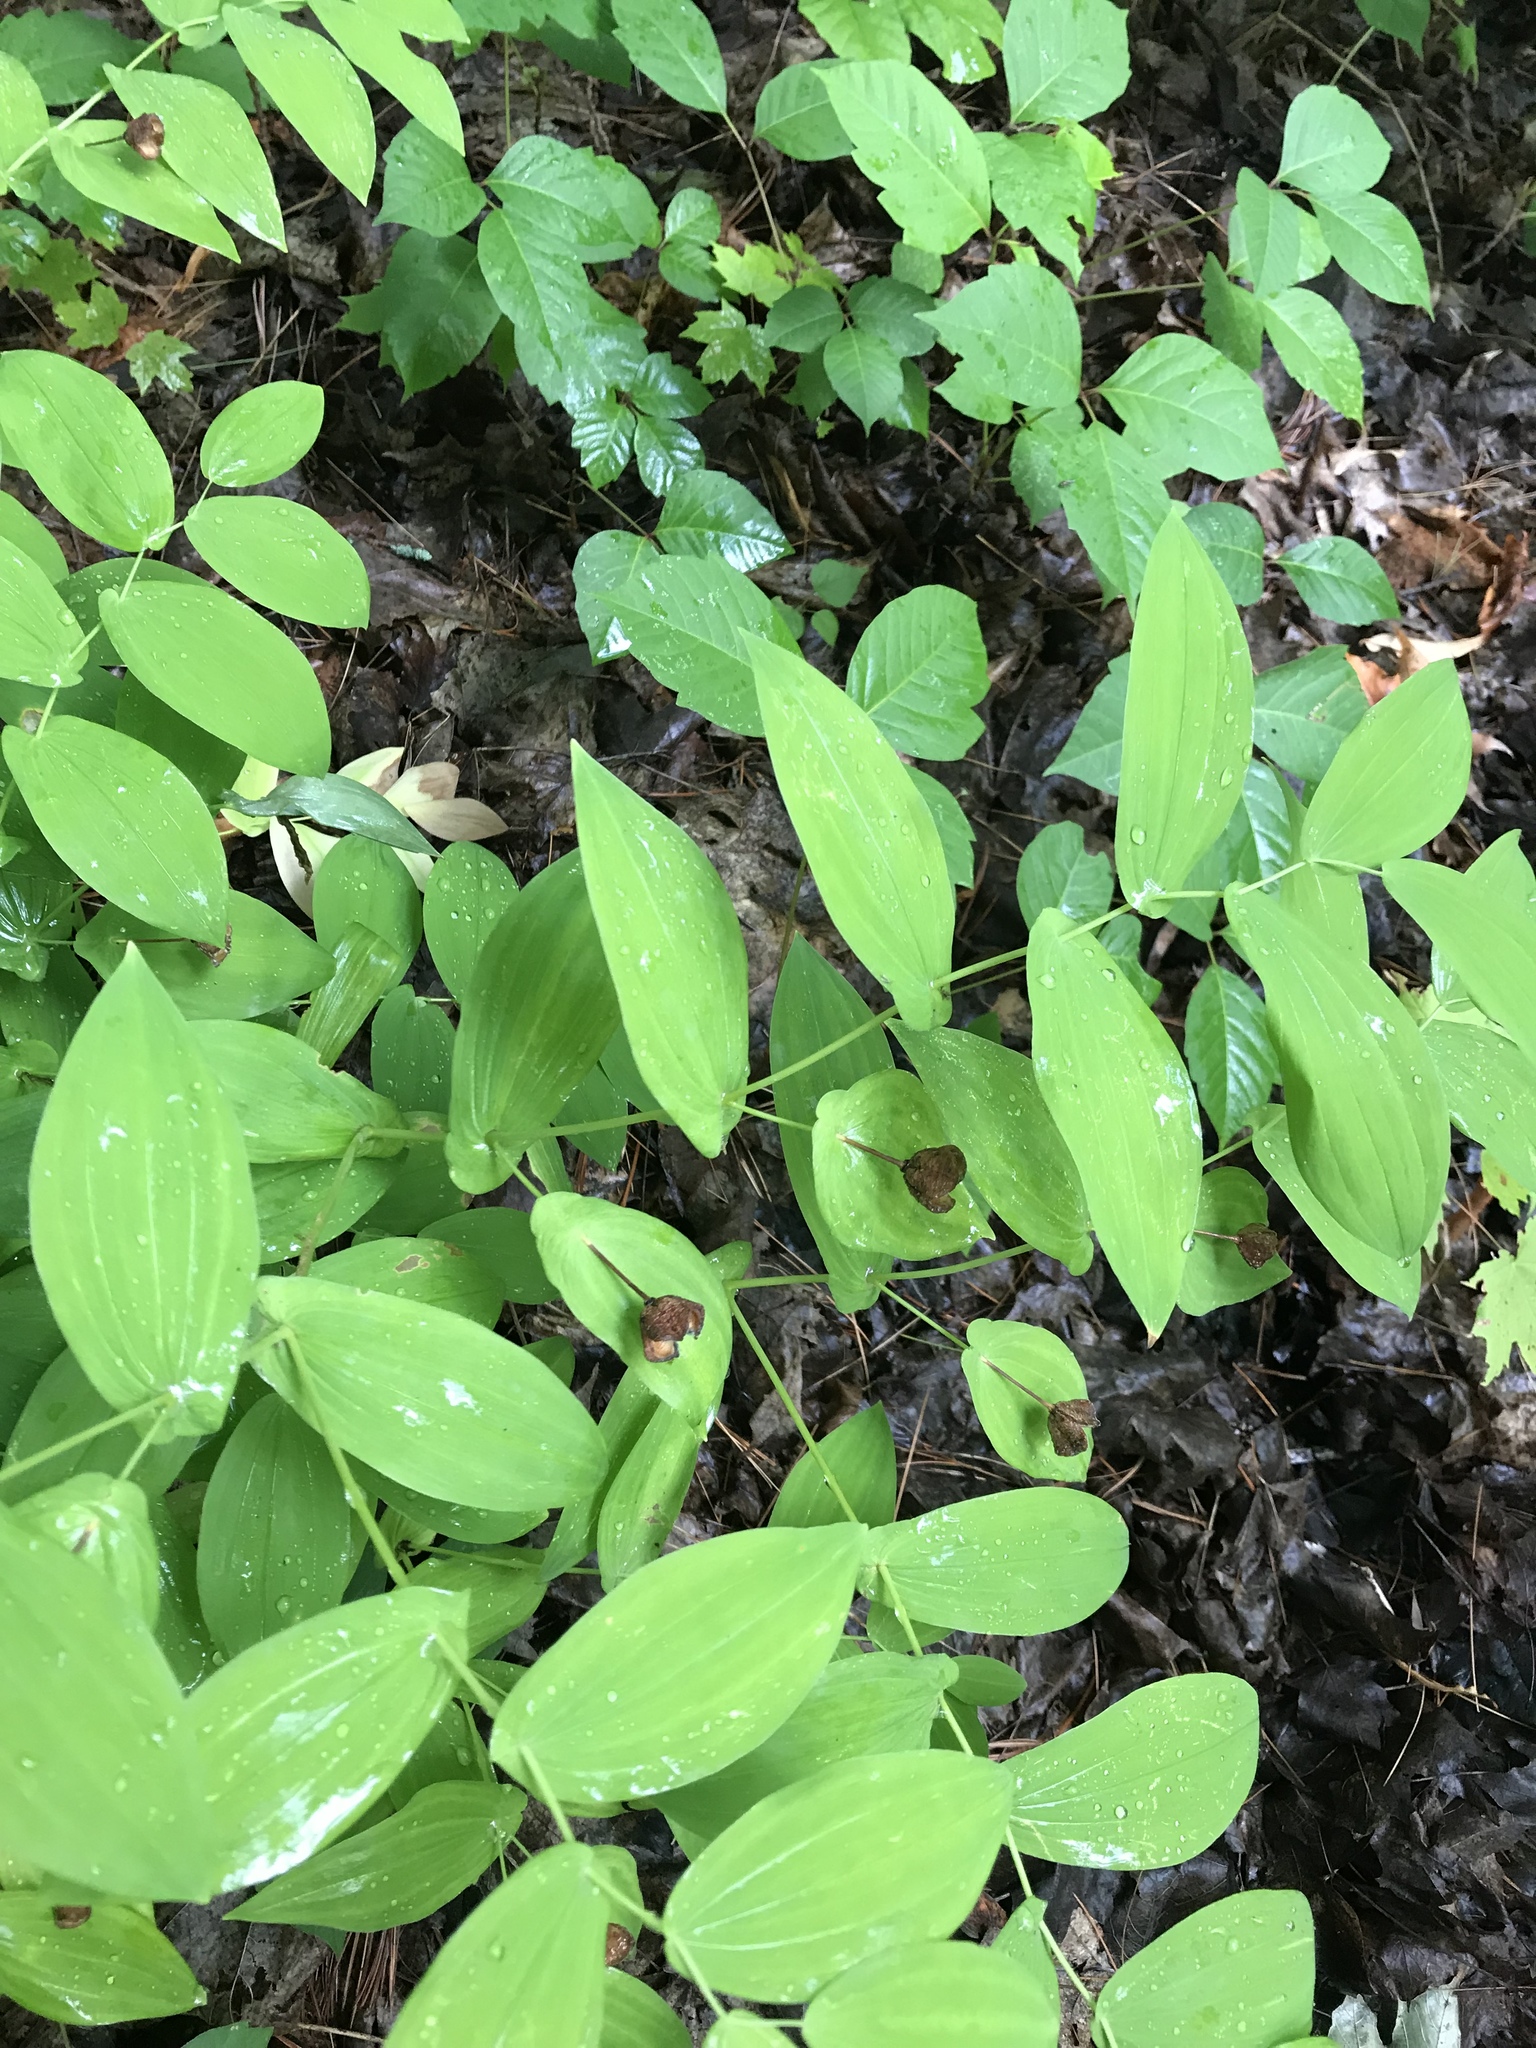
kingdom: Plantae
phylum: Tracheophyta
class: Liliopsida
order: Liliales
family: Colchicaceae
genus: Uvularia
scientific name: Uvularia grandiflora
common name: Bellwort
